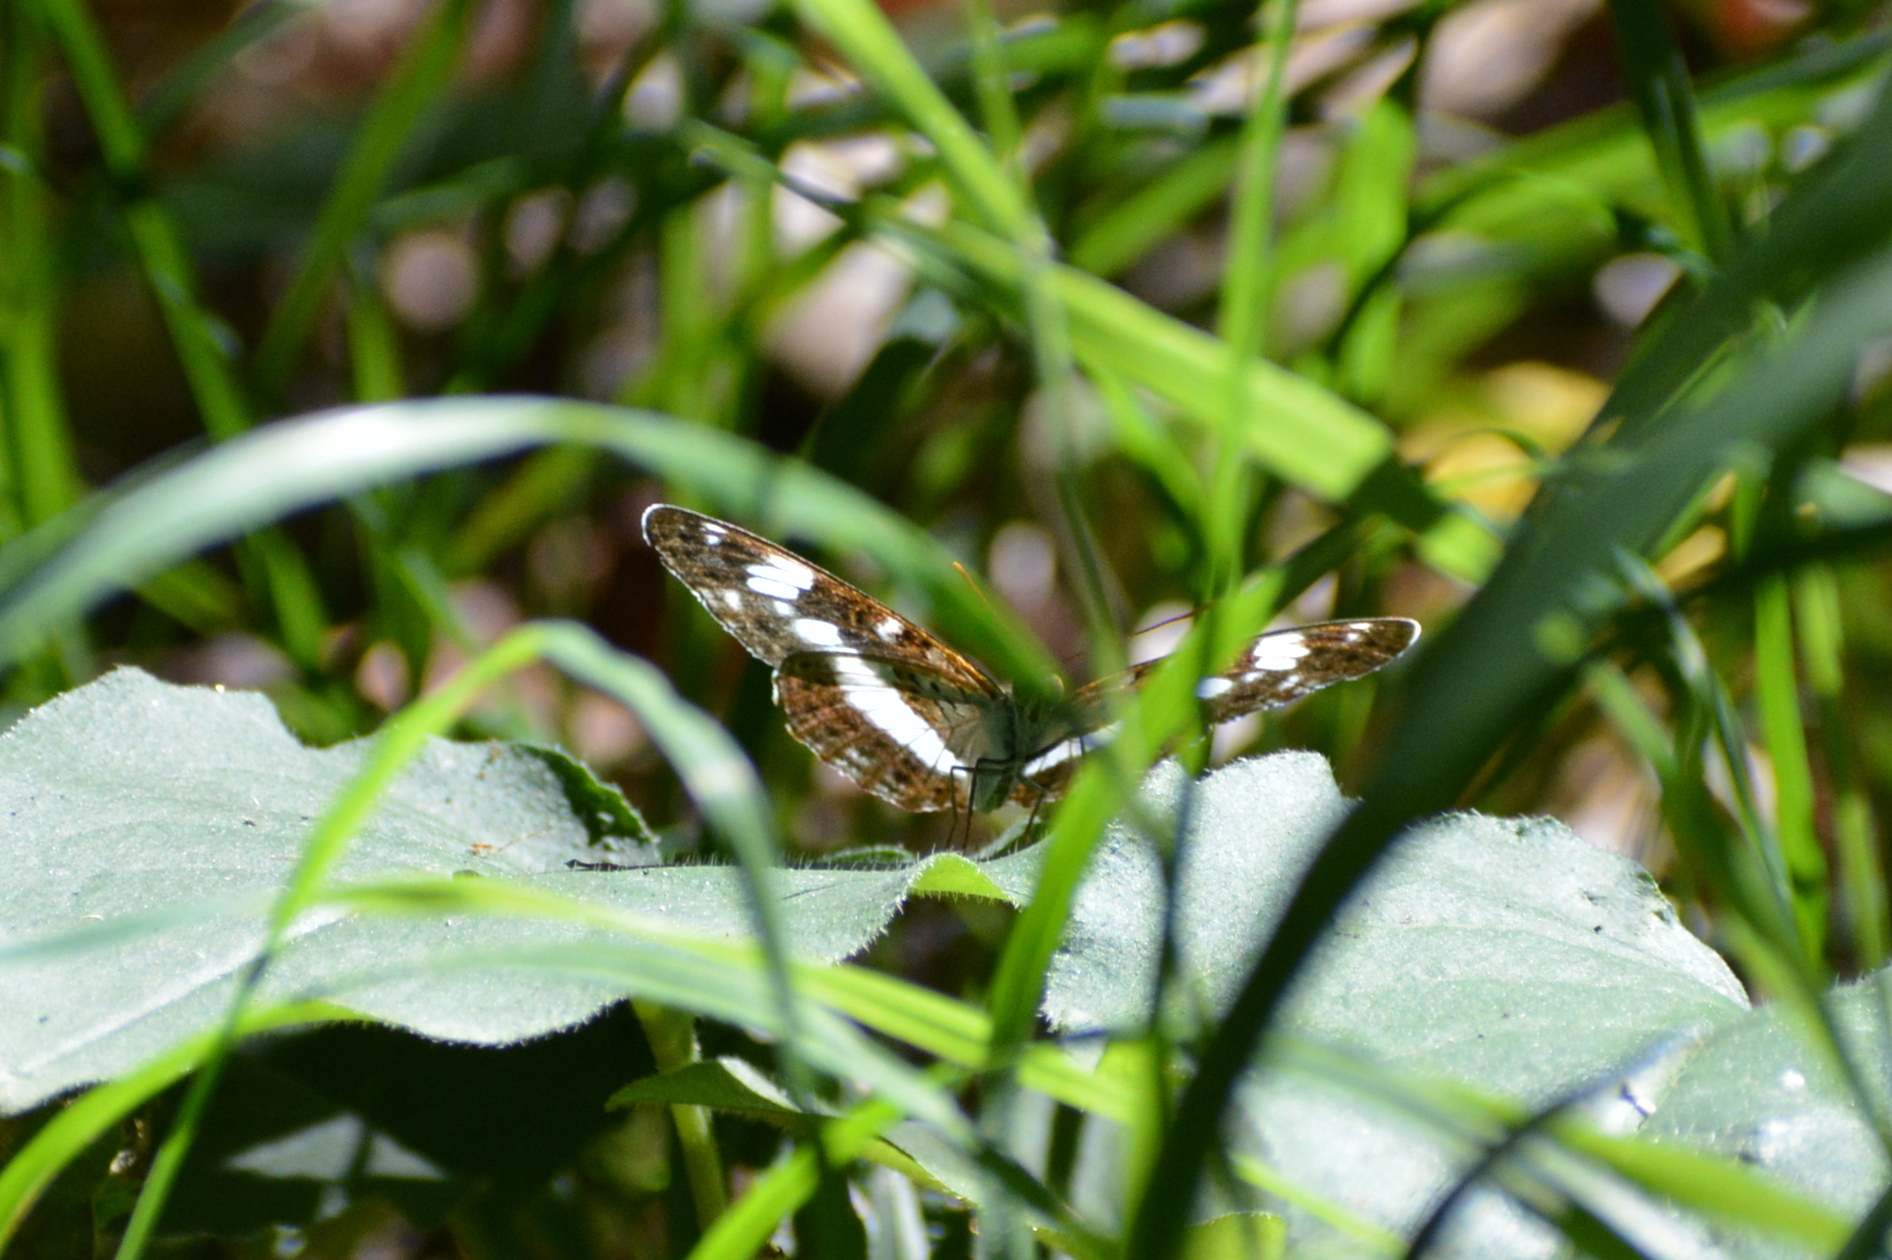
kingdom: Animalia
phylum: Arthropoda
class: Insecta
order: Lepidoptera
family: Nymphalidae
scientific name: Nymphalidae
